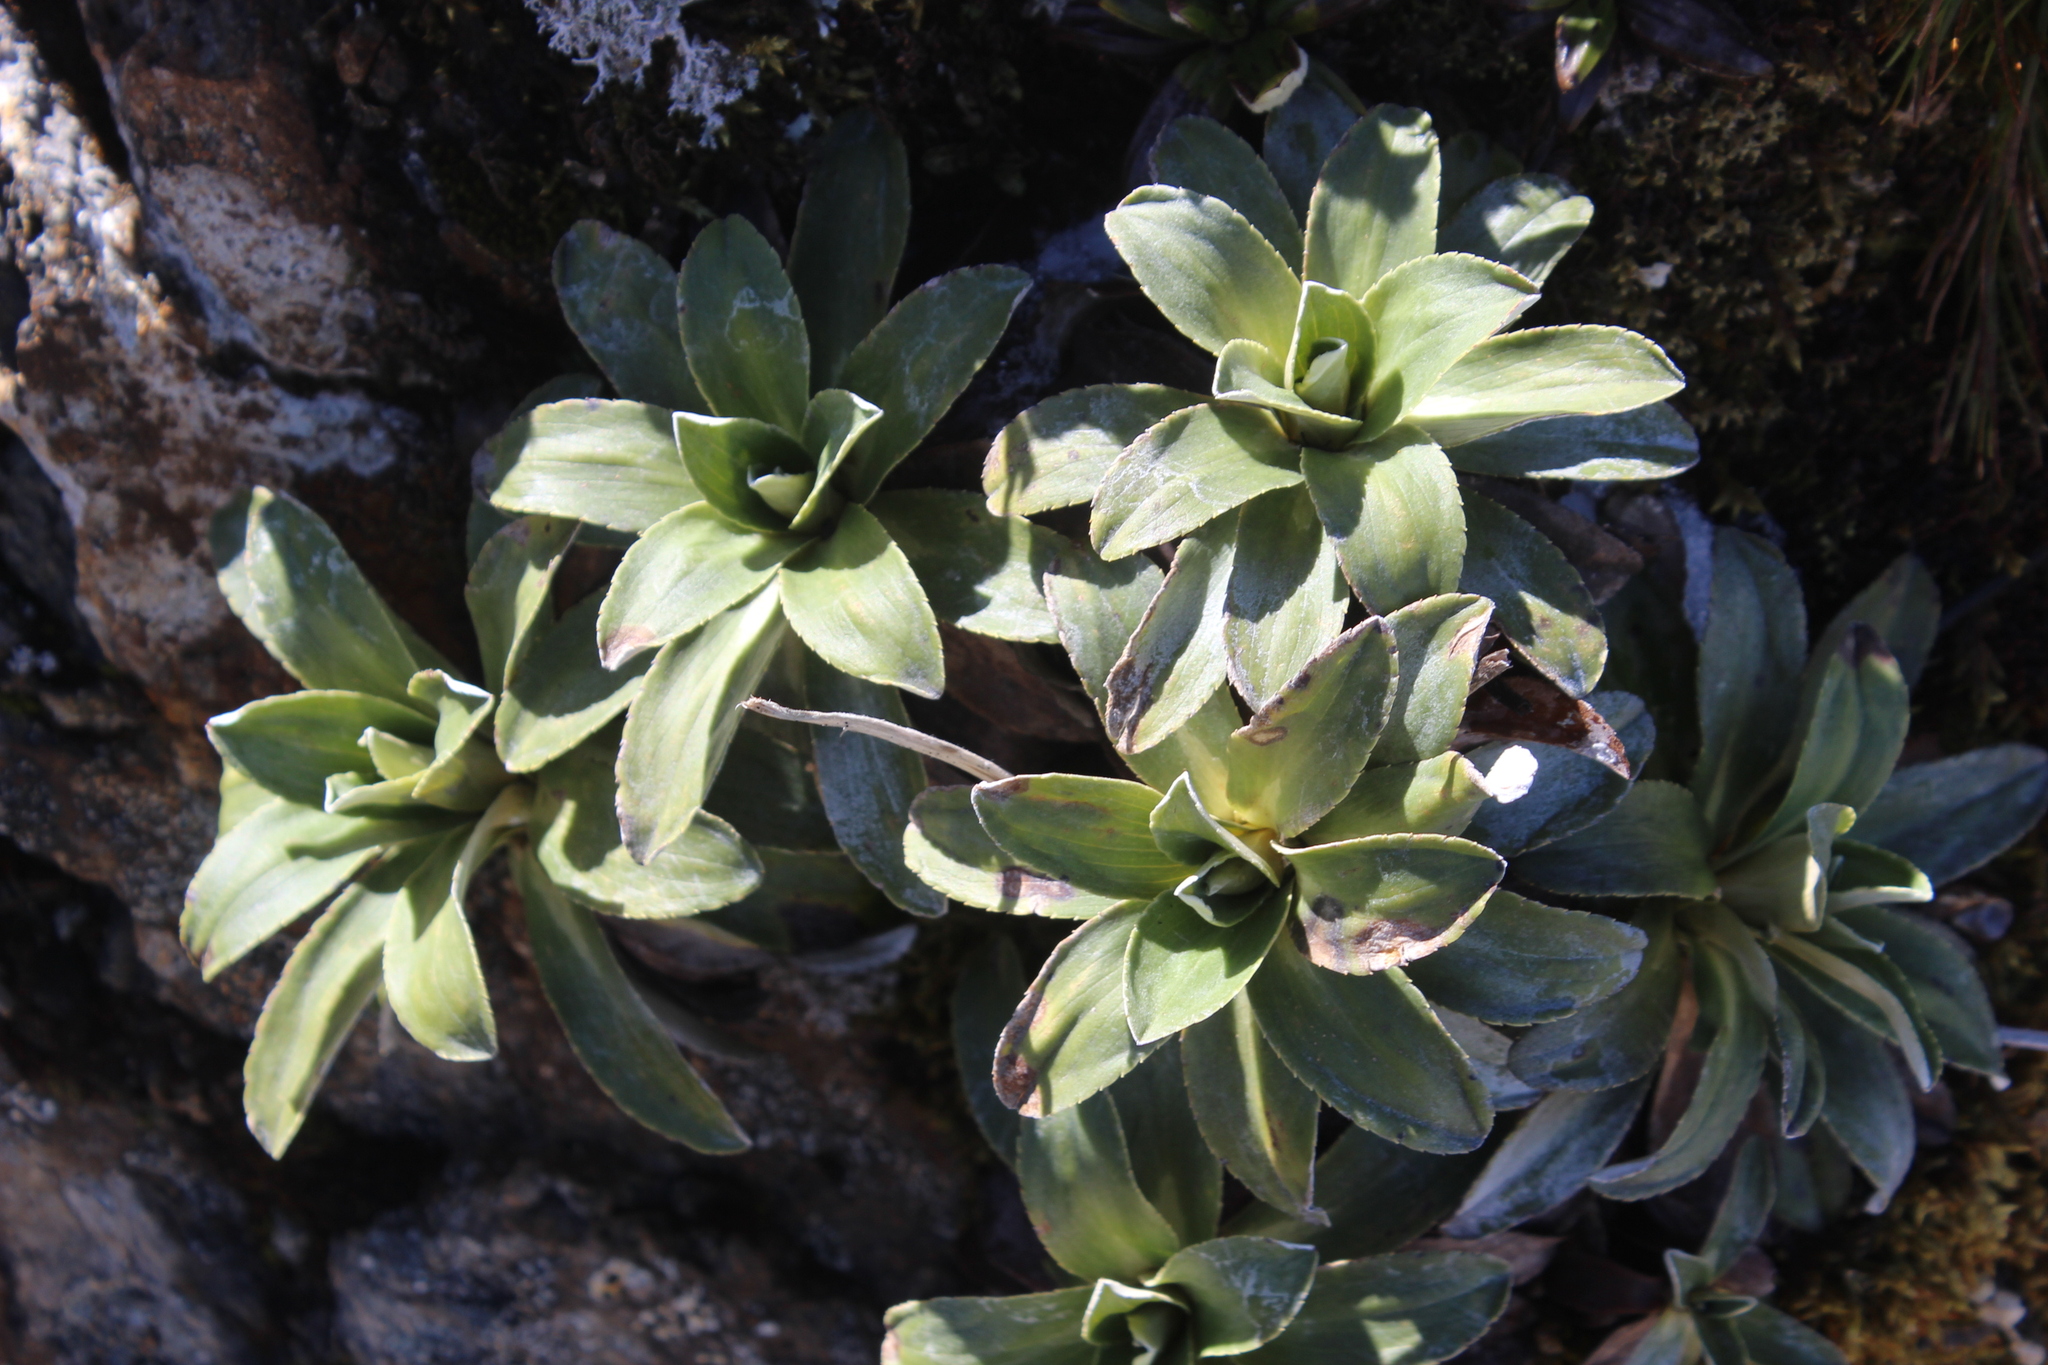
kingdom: Plantae
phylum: Tracheophyta
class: Magnoliopsida
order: Asterales
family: Asteraceae
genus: Celmisia
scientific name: Celmisia hieraciifolia
